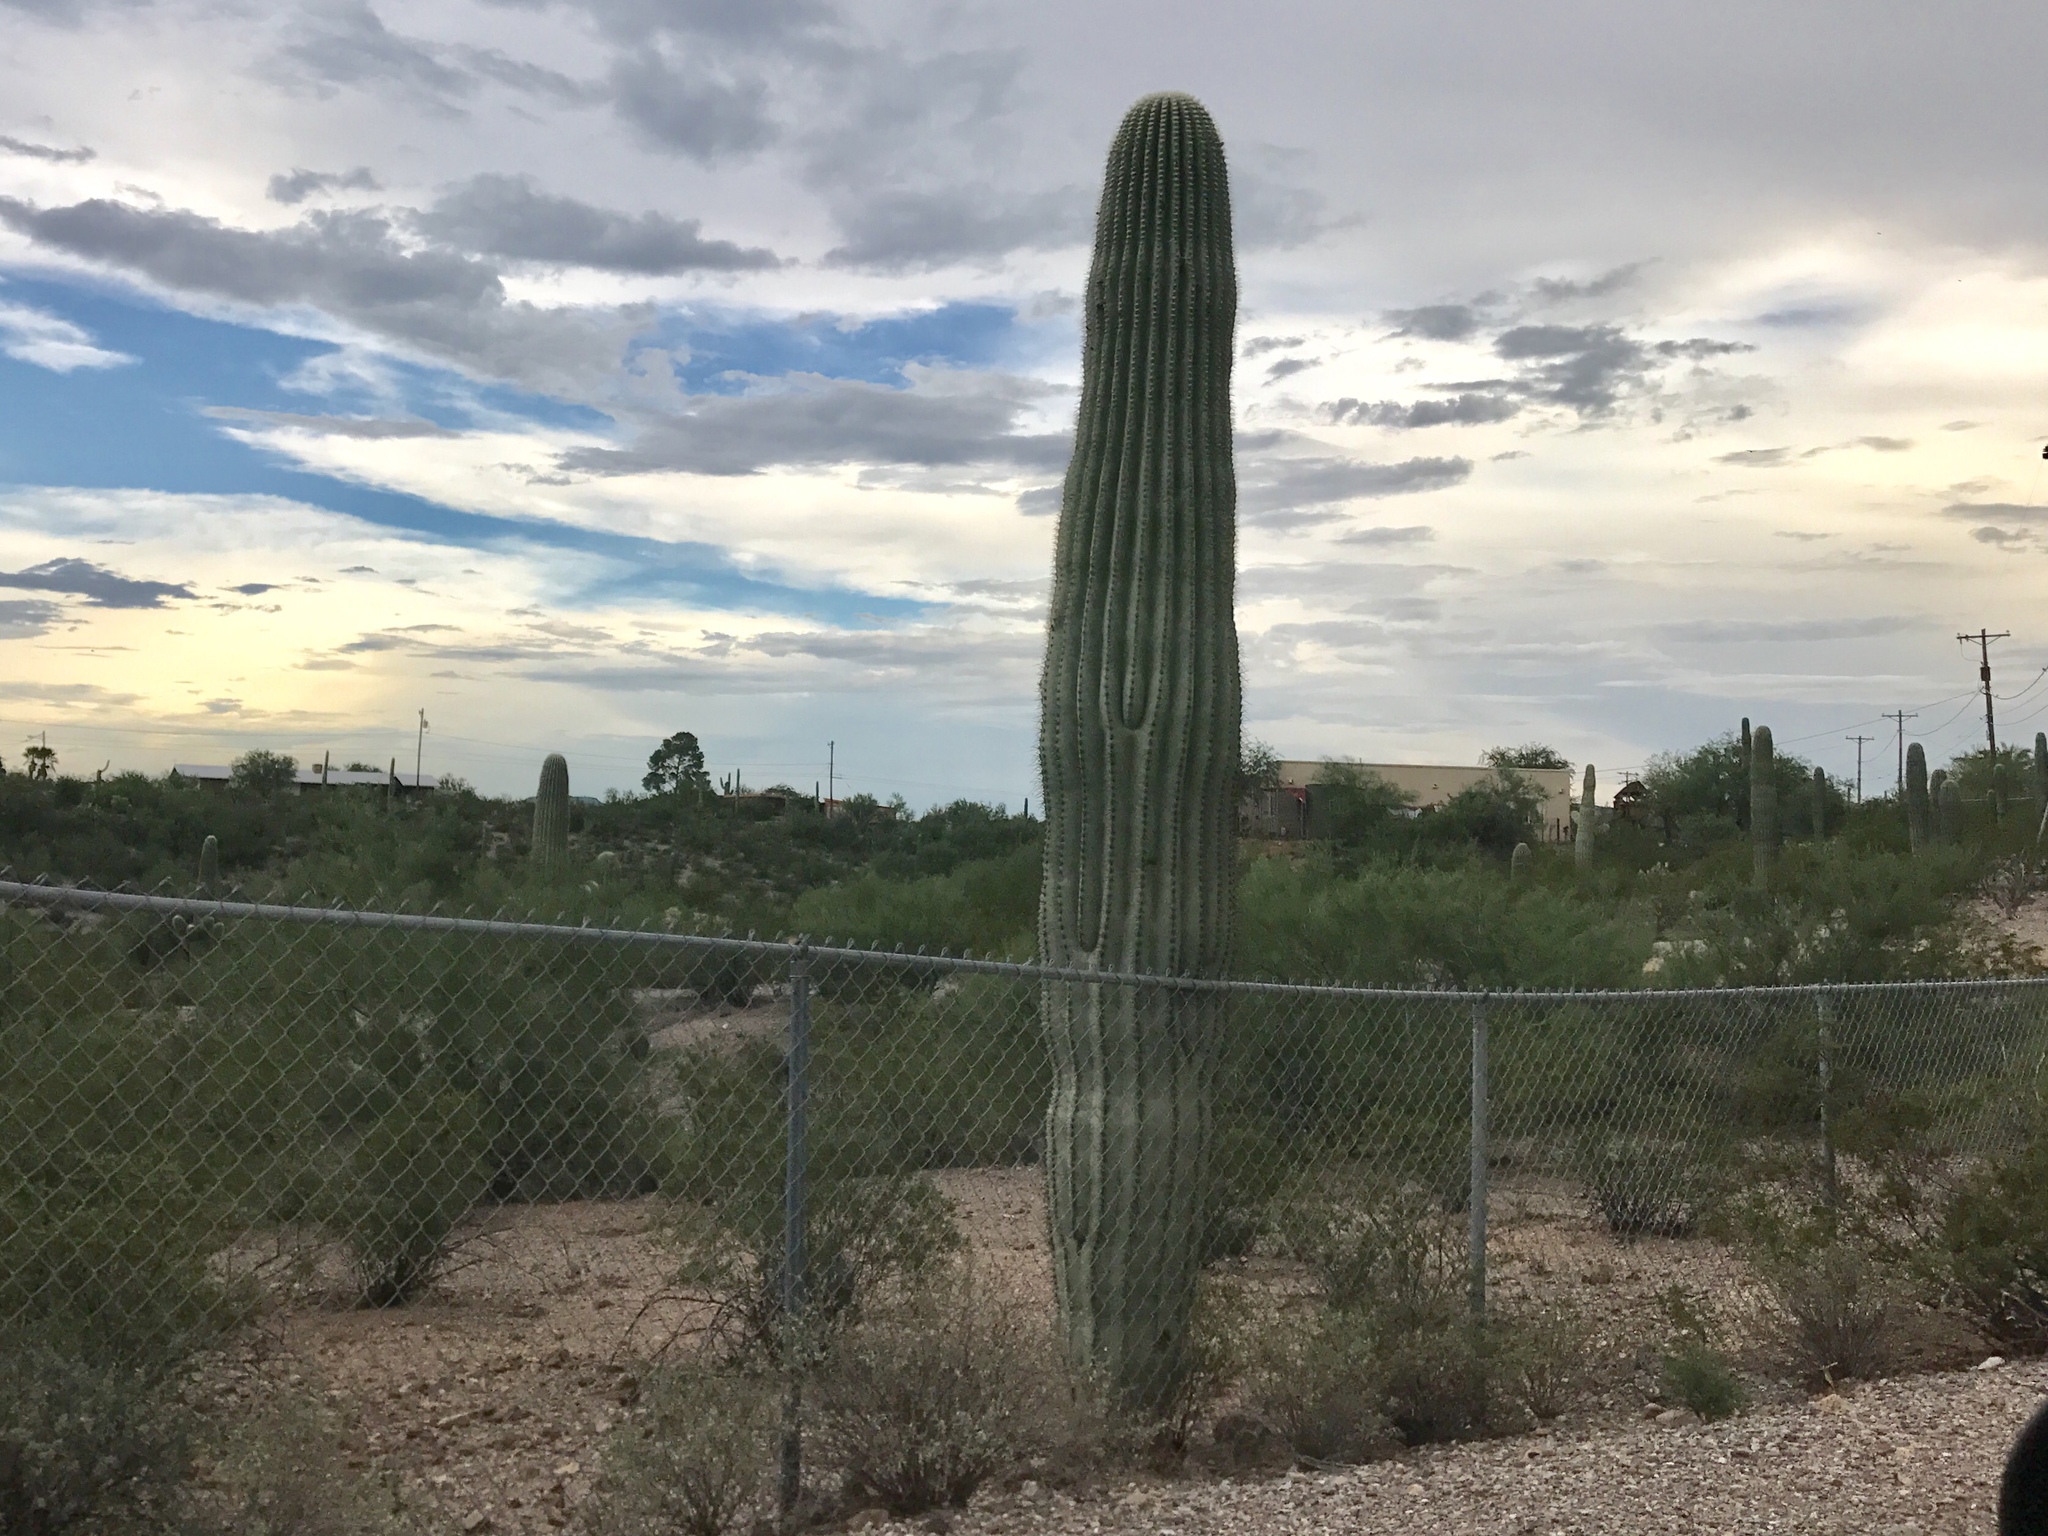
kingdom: Plantae
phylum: Tracheophyta
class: Magnoliopsida
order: Caryophyllales
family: Cactaceae
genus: Carnegiea
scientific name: Carnegiea gigantea
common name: Saguaro
